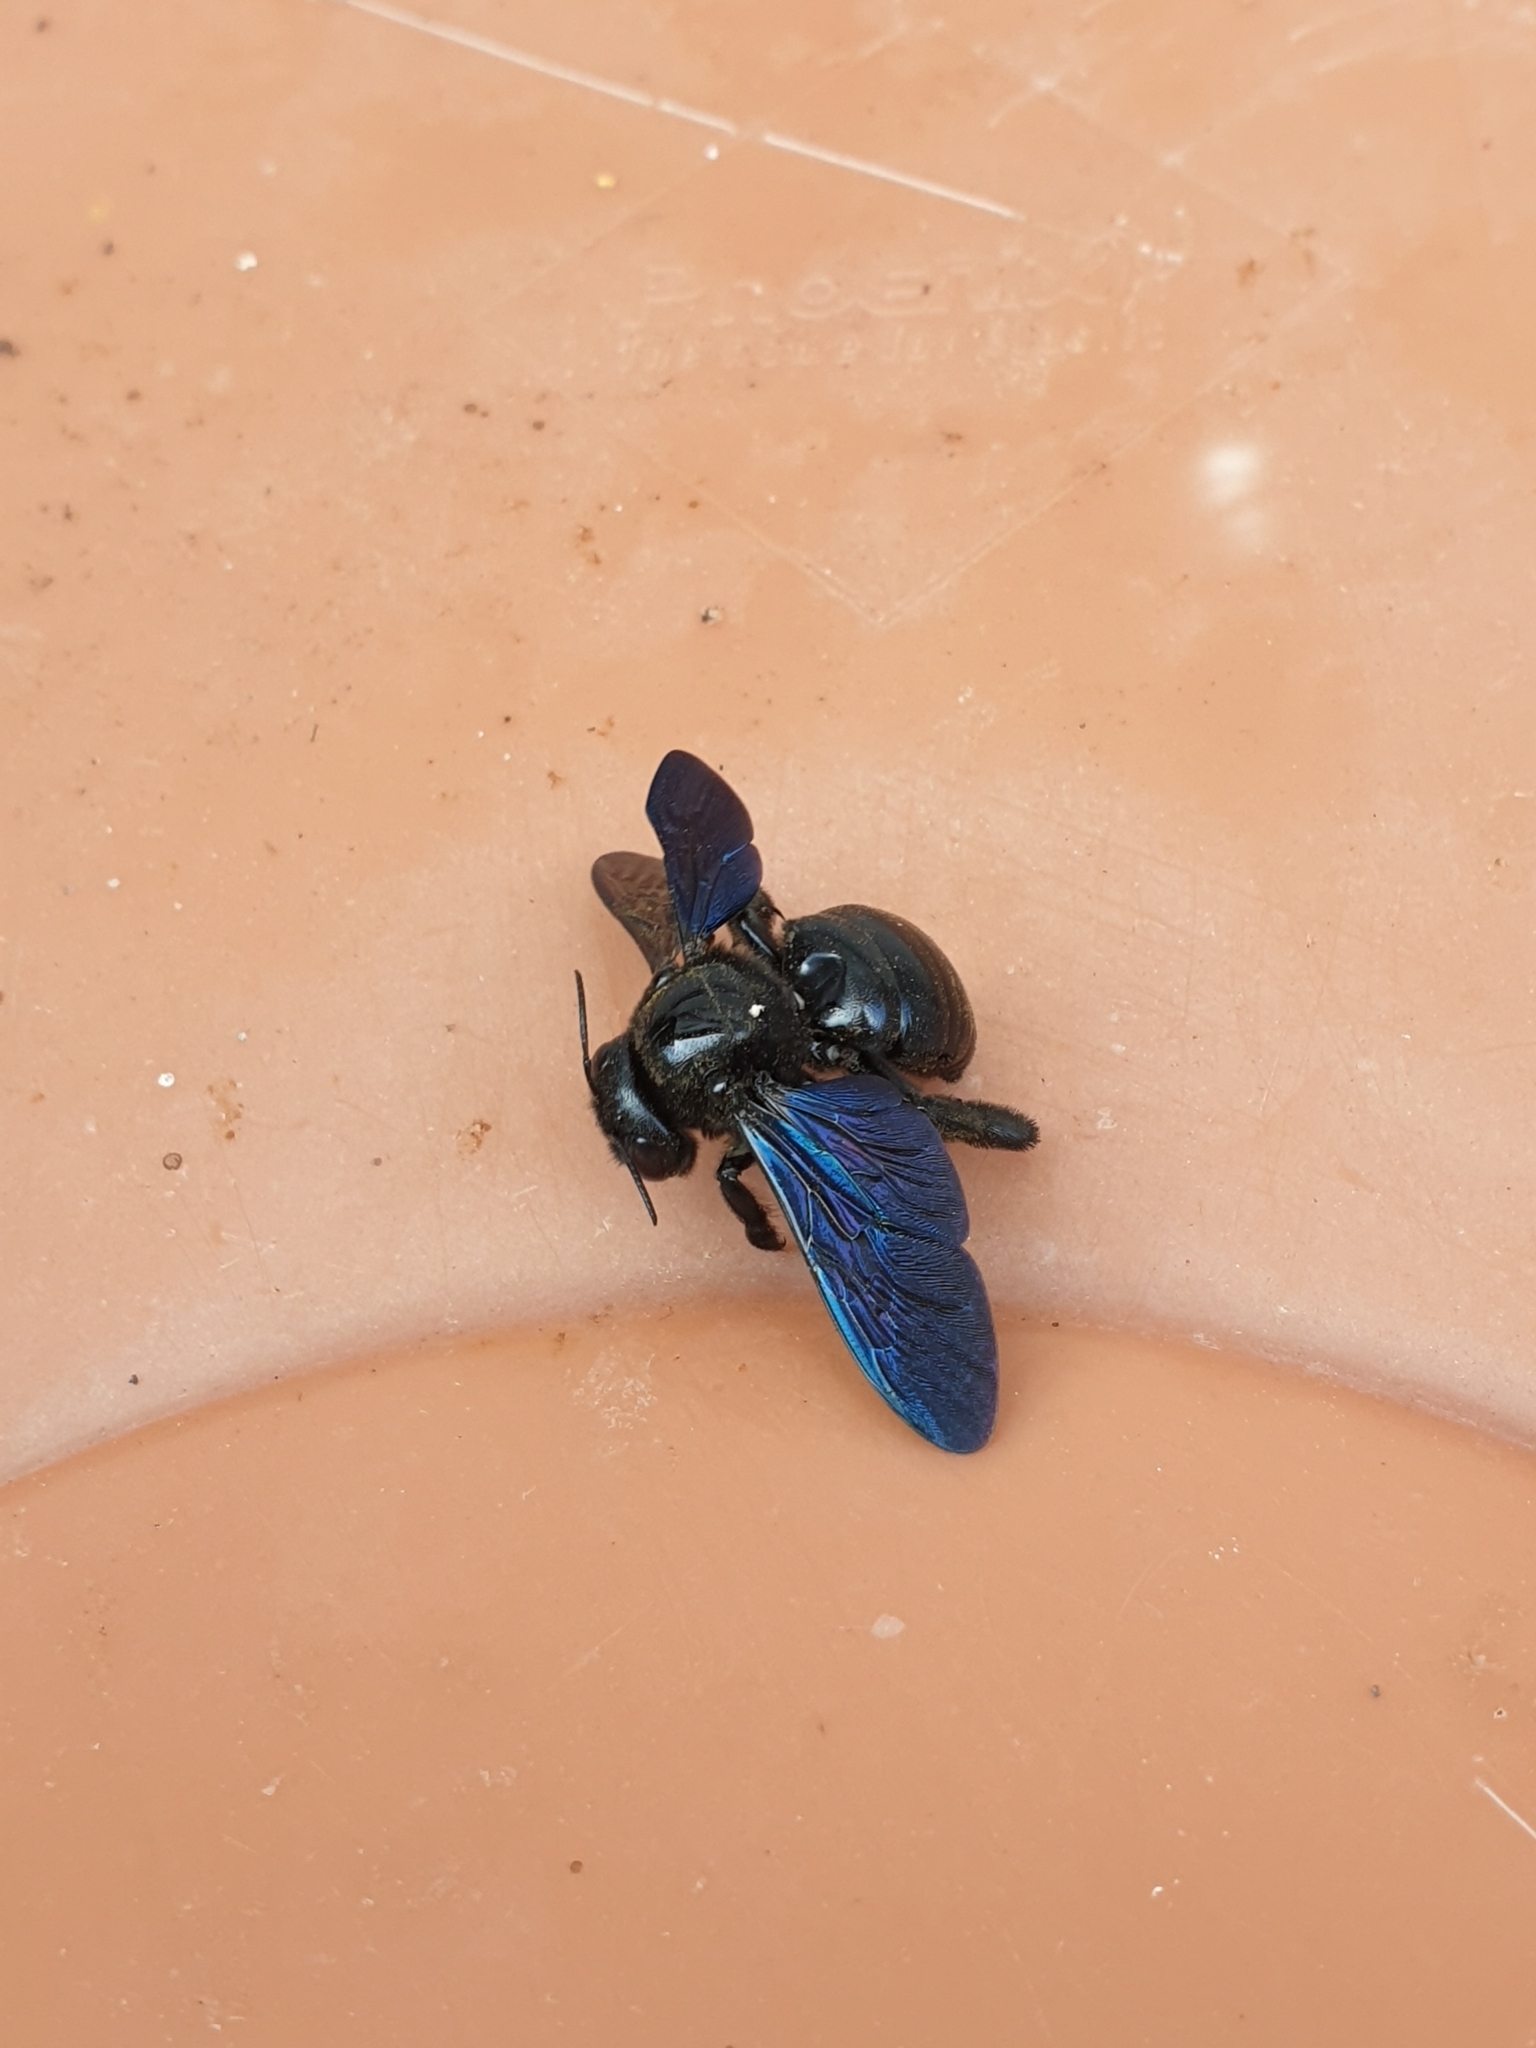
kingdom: Animalia
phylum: Arthropoda
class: Insecta
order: Hymenoptera
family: Apidae
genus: Xylocopa
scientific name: Xylocopa fenestrata
